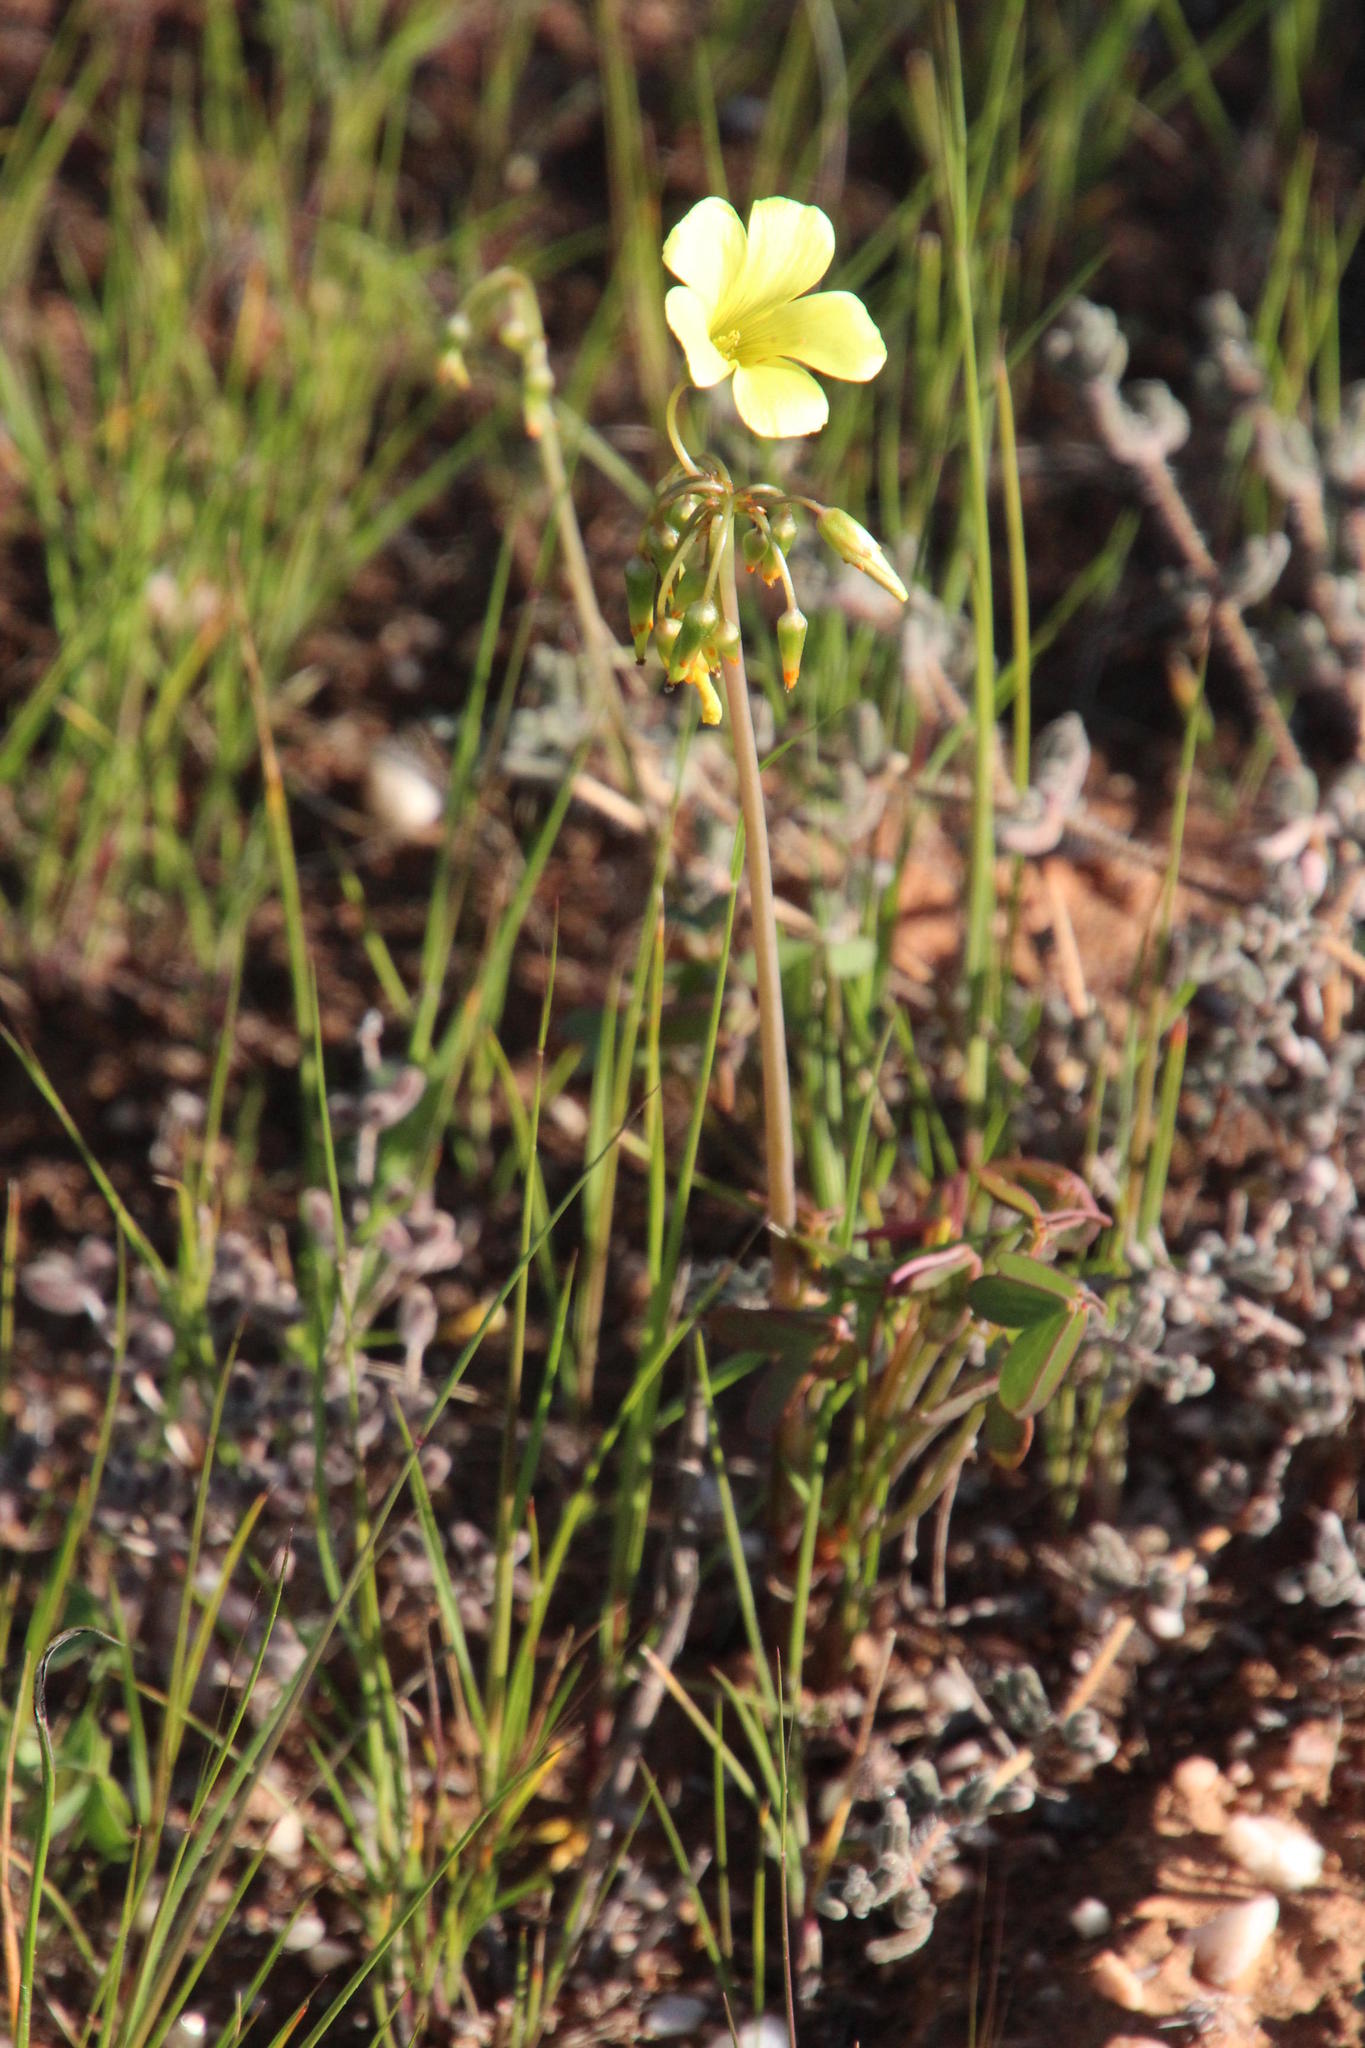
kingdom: Plantae
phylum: Tracheophyta
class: Magnoliopsida
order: Oxalidales
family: Oxalidaceae
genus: Oxalis
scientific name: Oxalis pes-caprae
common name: Bermuda-buttercup
